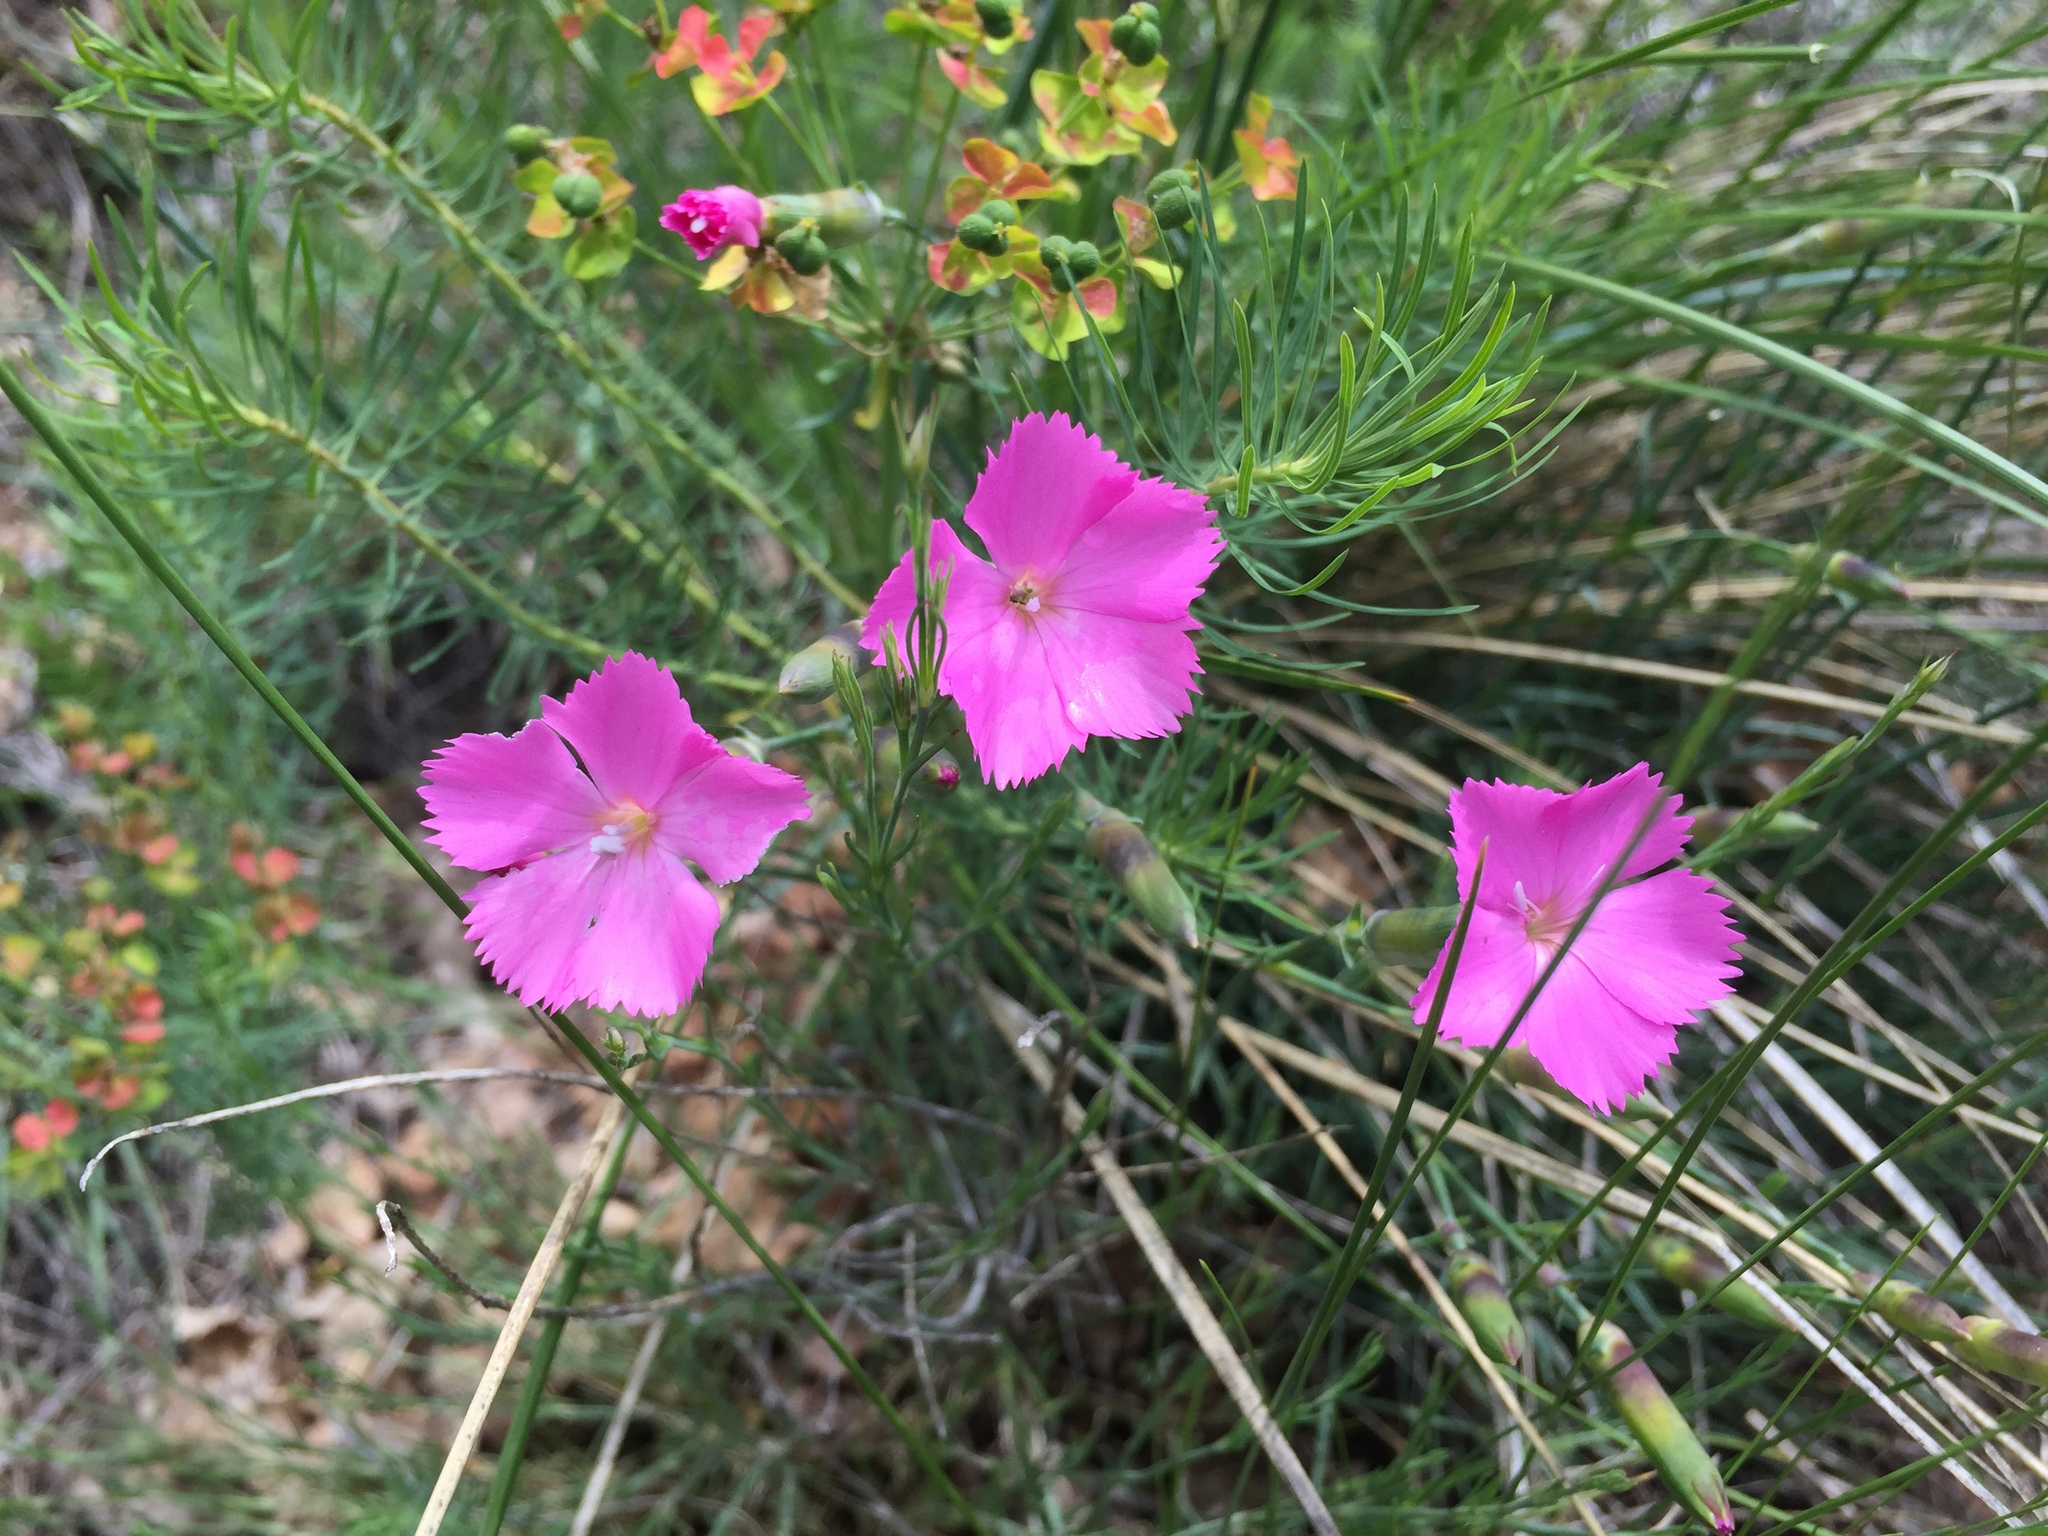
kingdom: Plantae
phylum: Tracheophyta
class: Magnoliopsida
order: Caryophyllales
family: Caryophyllaceae
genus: Dianthus
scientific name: Dianthus sylvestris
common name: Wood pink
